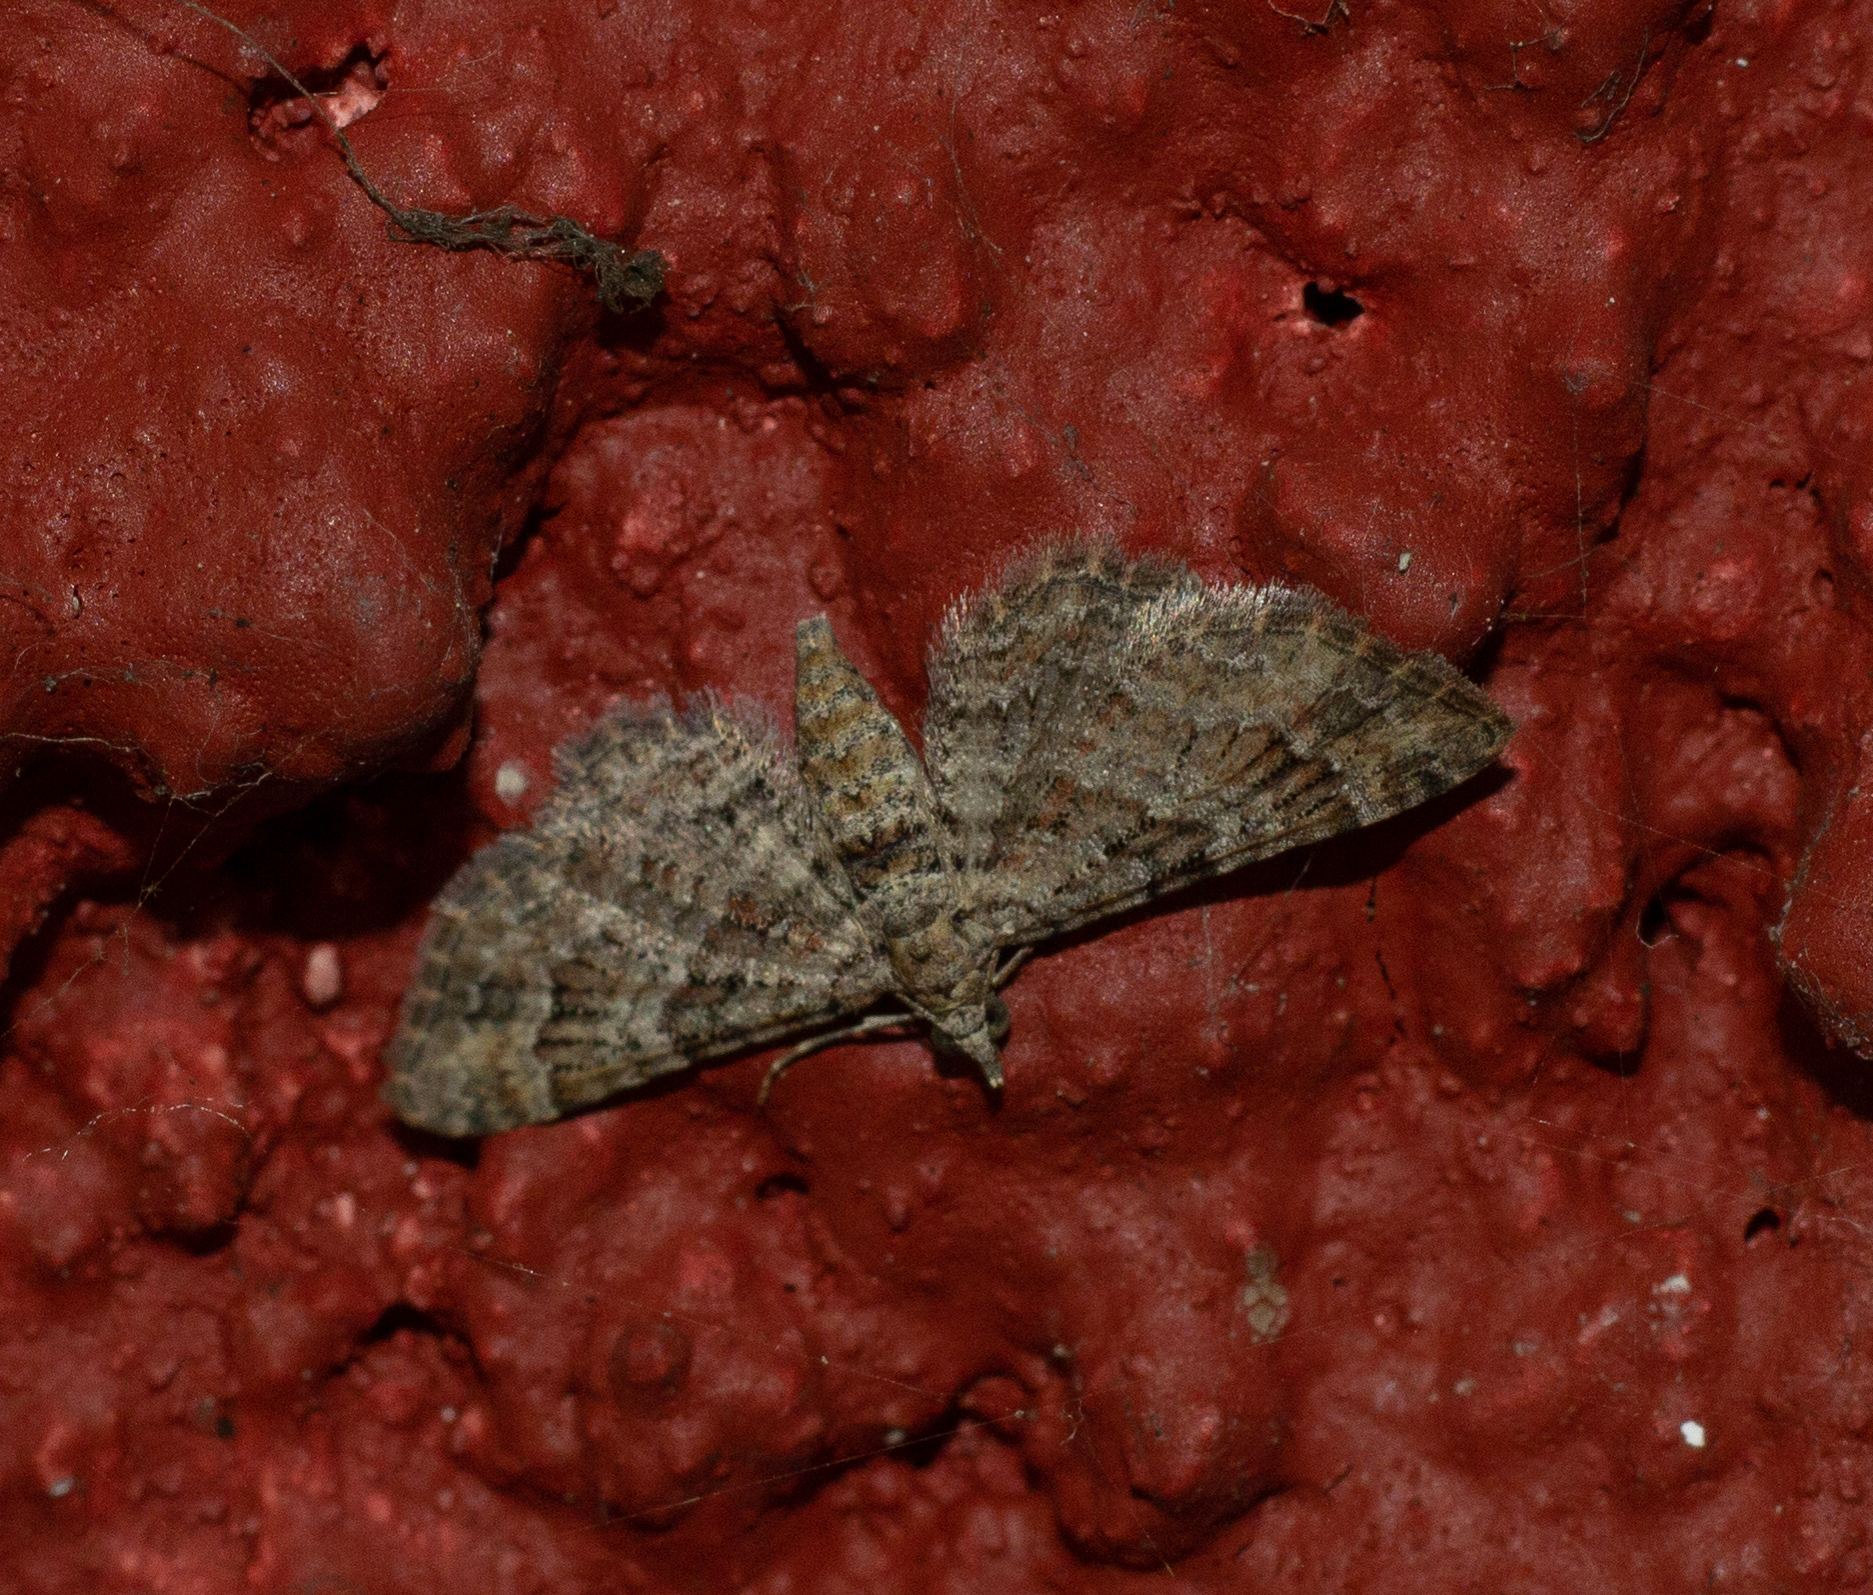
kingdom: Animalia
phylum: Arthropoda
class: Insecta
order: Lepidoptera
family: Geometridae
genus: Gymnoscelis
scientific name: Gymnoscelis rufifasciata
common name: Double-striped pug
